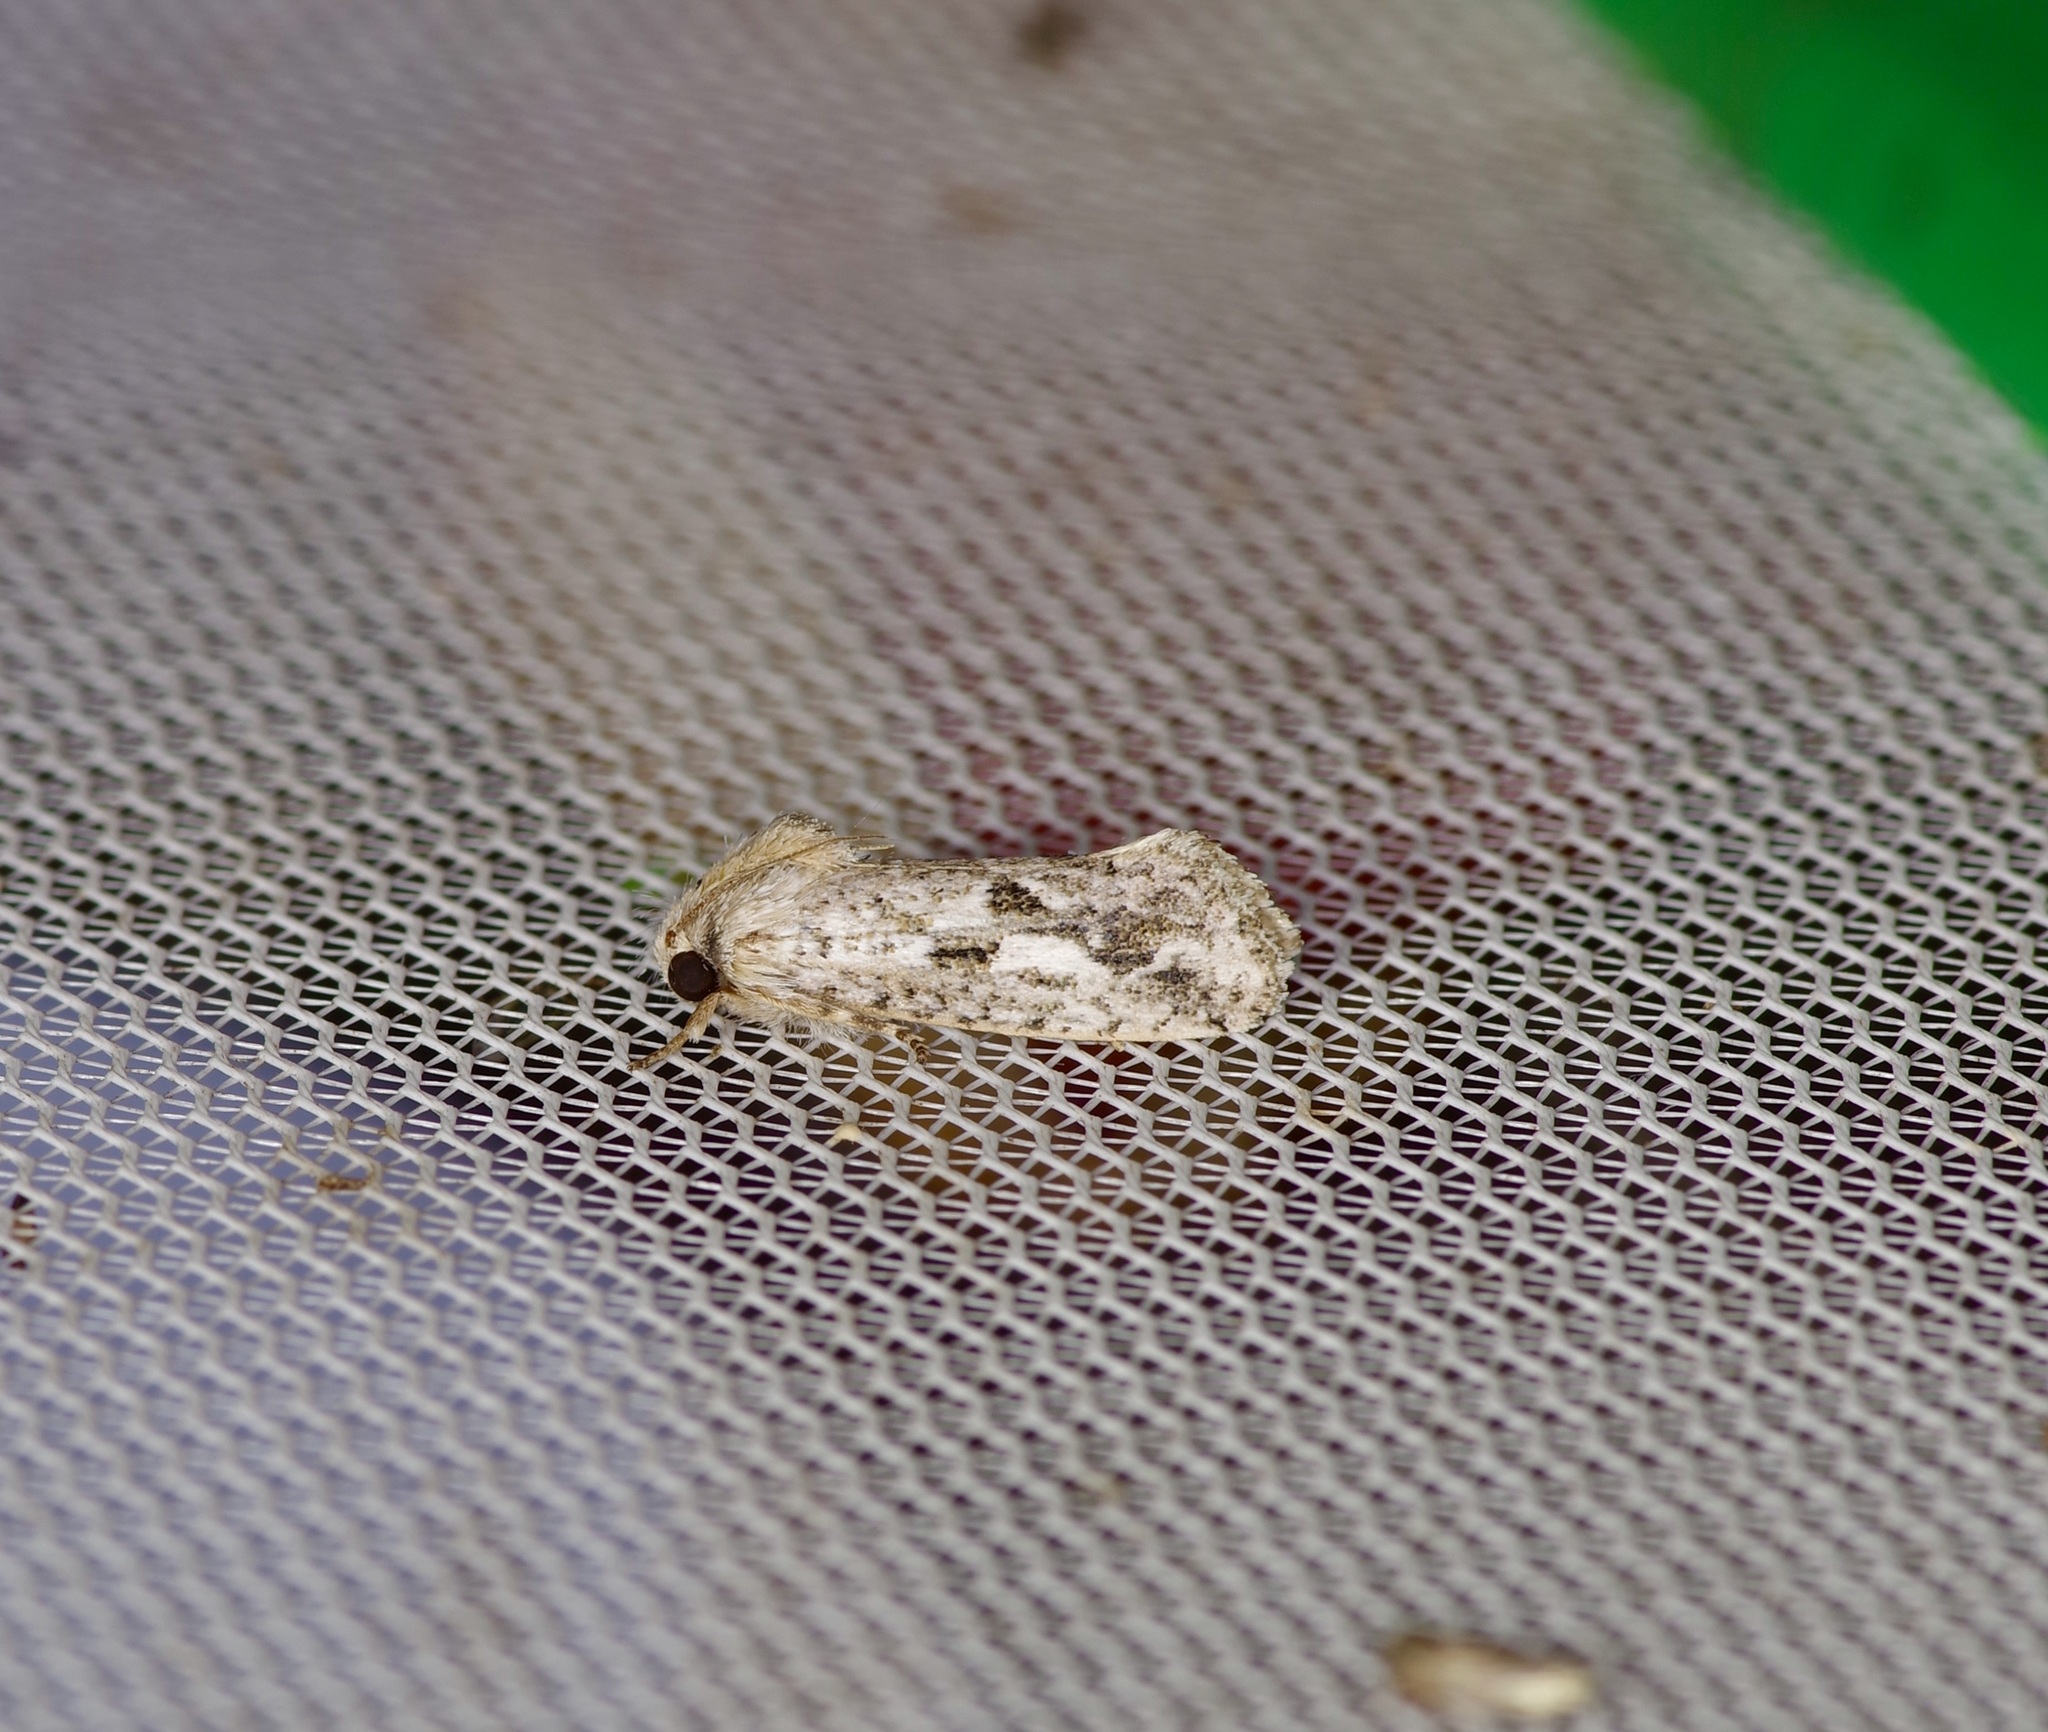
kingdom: Animalia
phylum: Arthropoda
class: Insecta
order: Lepidoptera
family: Tineidae
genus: Acrolophus
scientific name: Acrolophus griseus
